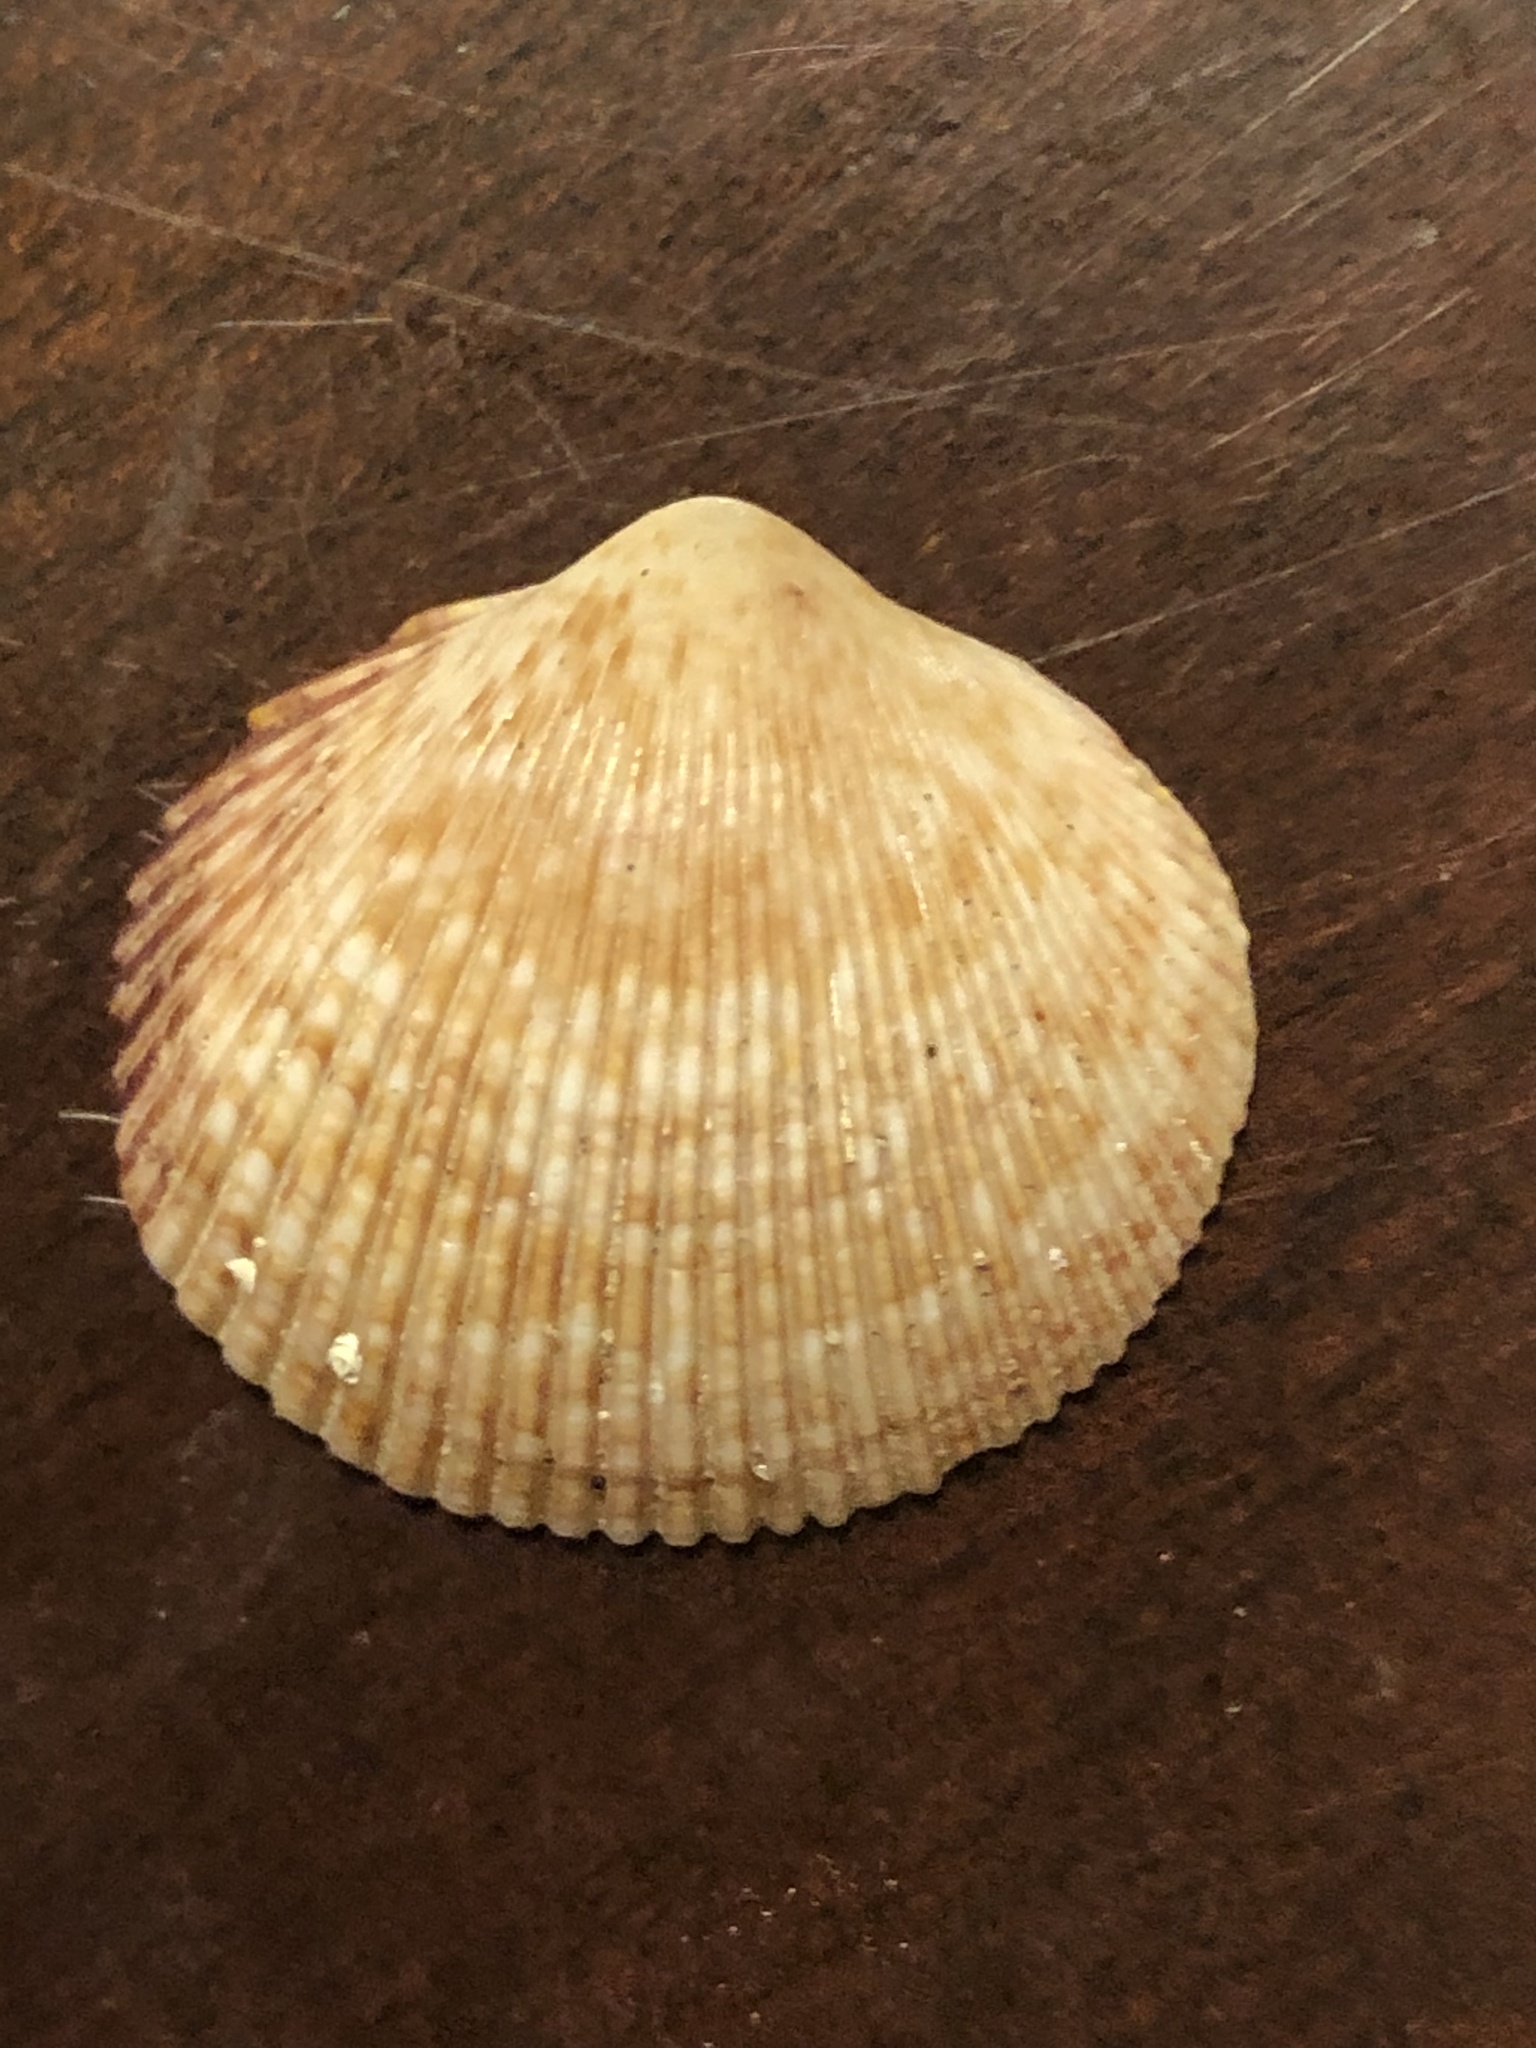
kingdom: Animalia
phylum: Mollusca
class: Bivalvia
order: Cardiida
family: Cardiidae
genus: Dallocardia
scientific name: Dallocardia quadragenaria
